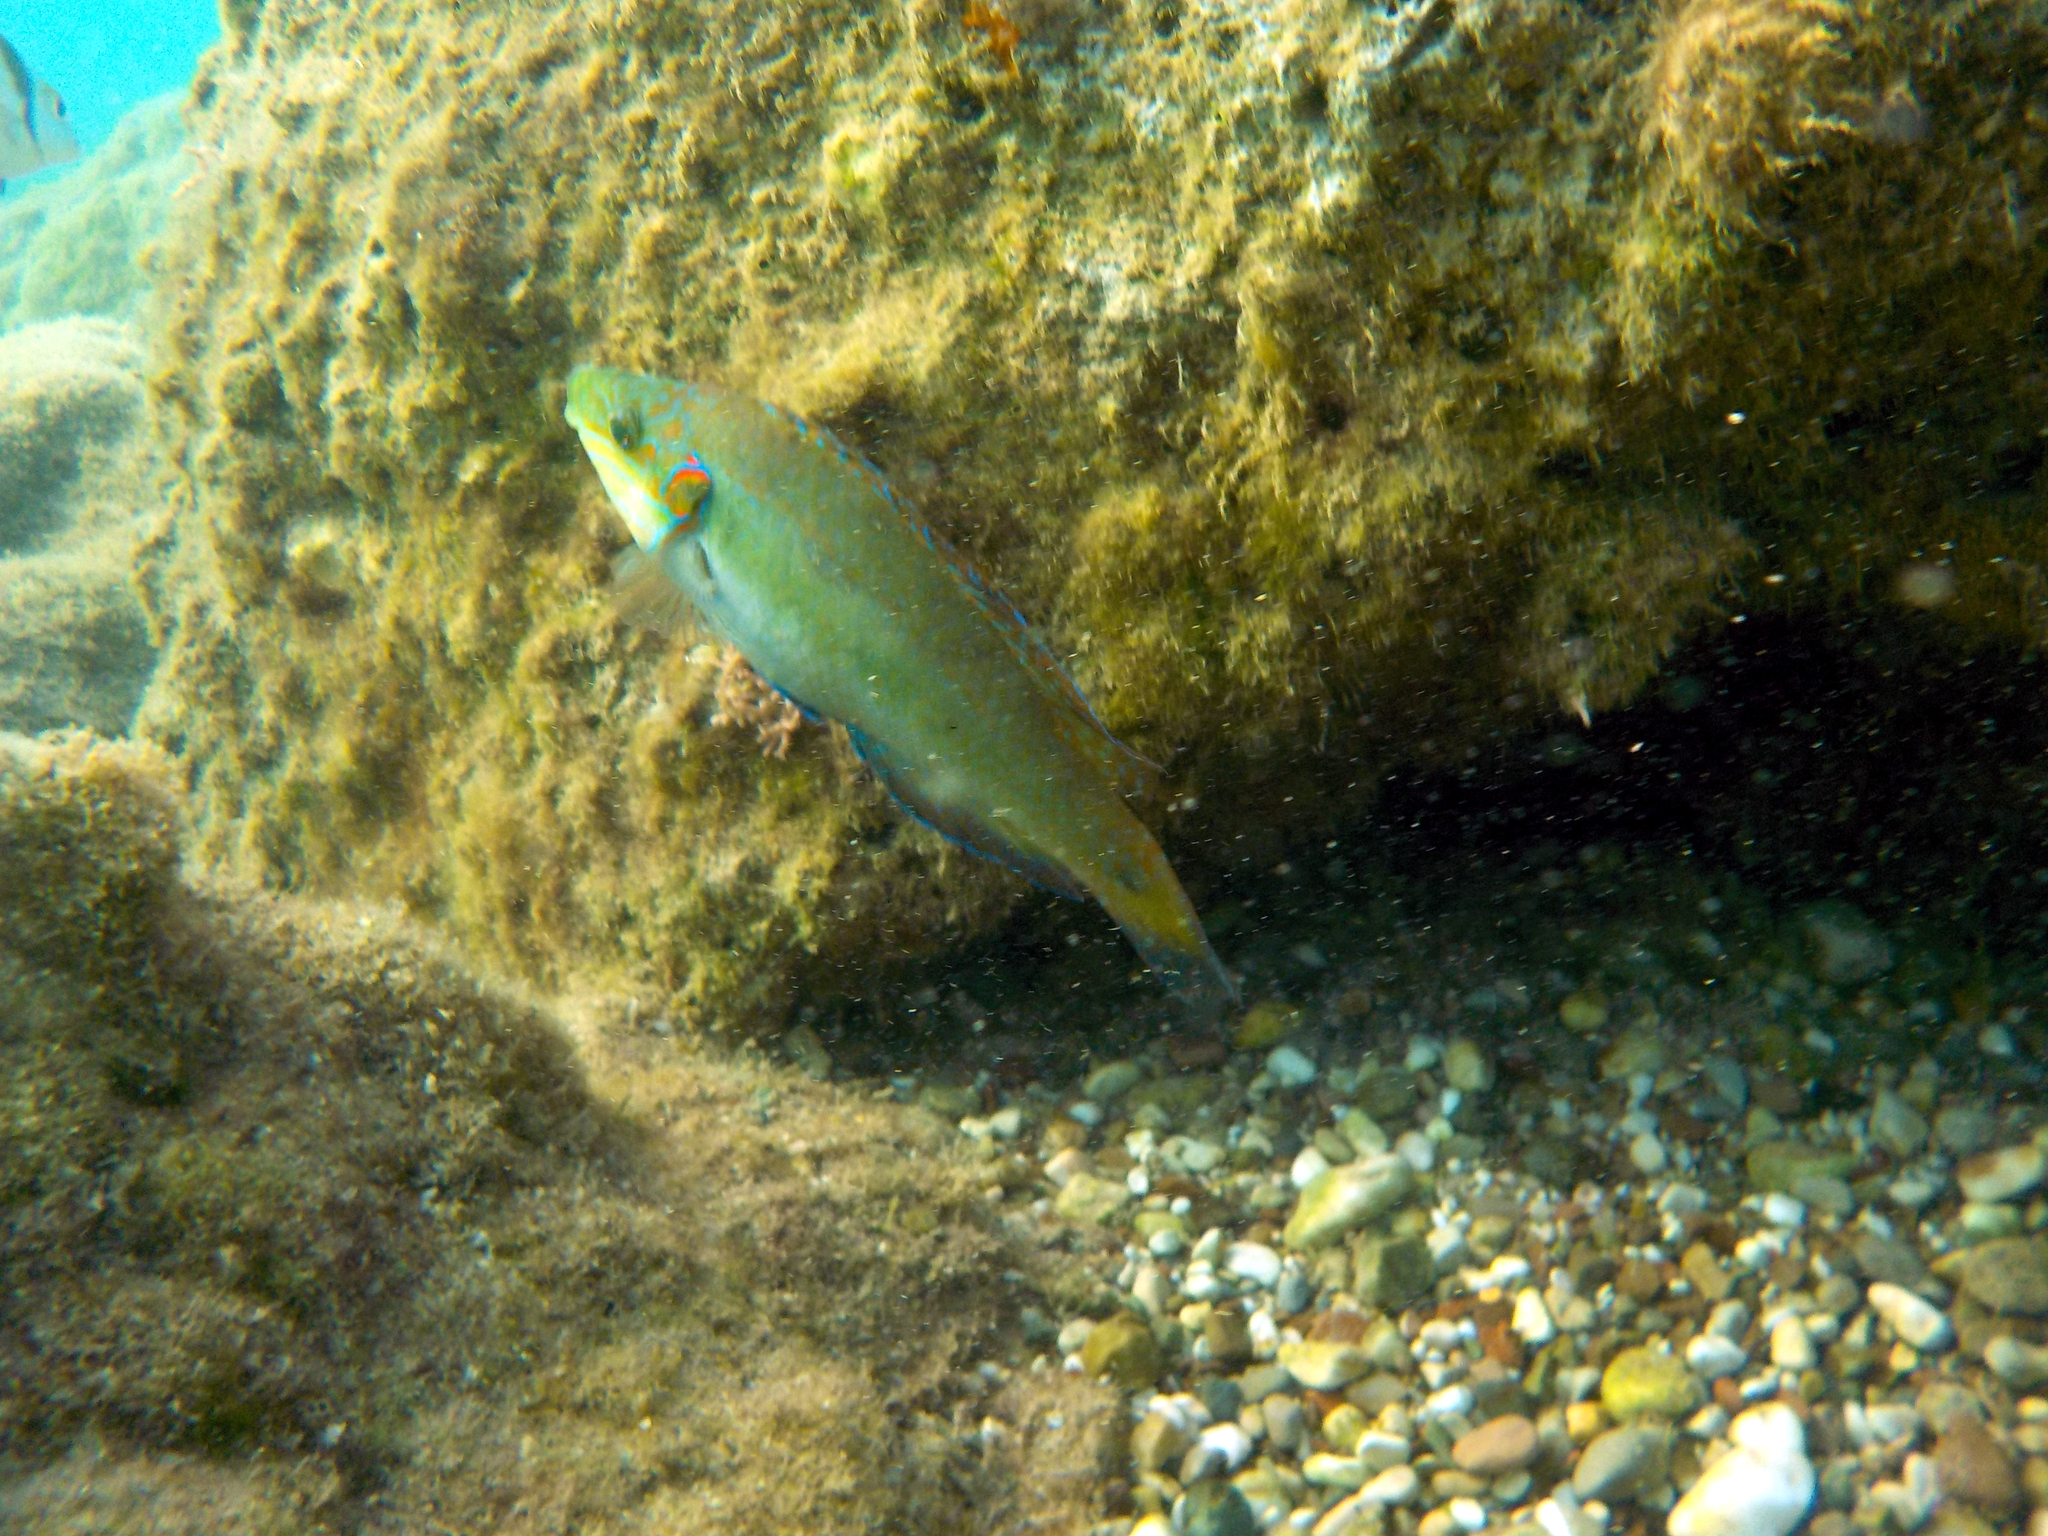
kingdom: Animalia
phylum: Chordata
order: Perciformes
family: Labridae
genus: Symphodus
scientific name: Symphodus ocellatus
